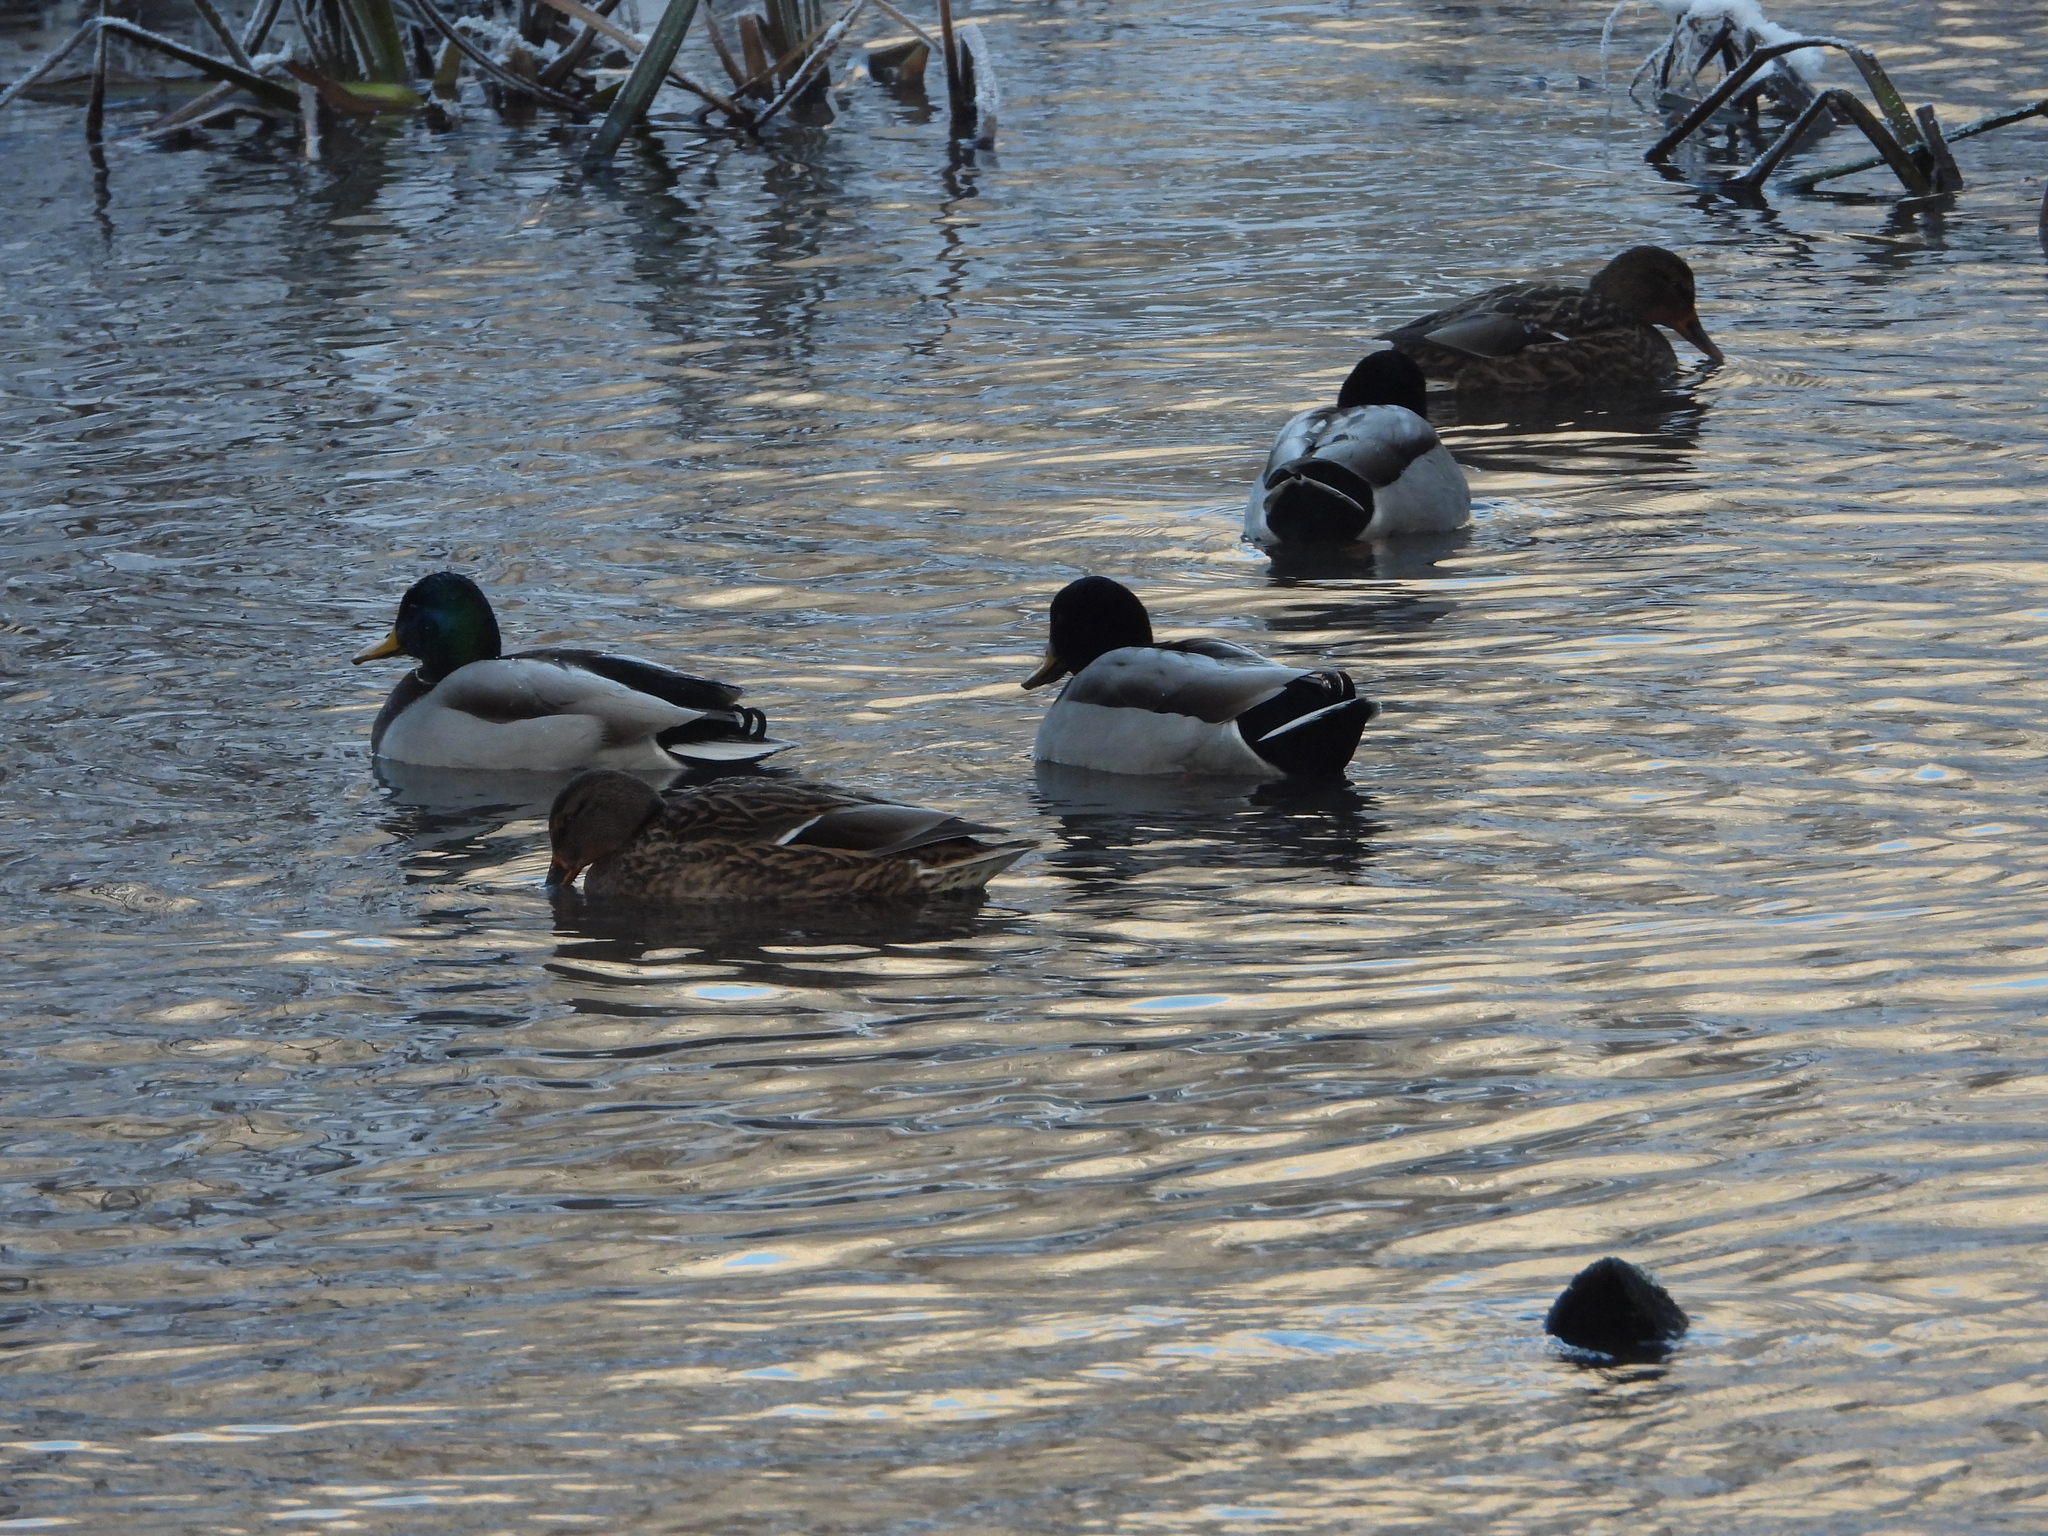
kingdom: Animalia
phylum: Chordata
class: Aves
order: Anseriformes
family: Anatidae
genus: Anas
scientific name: Anas platyrhynchos
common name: Mallard
